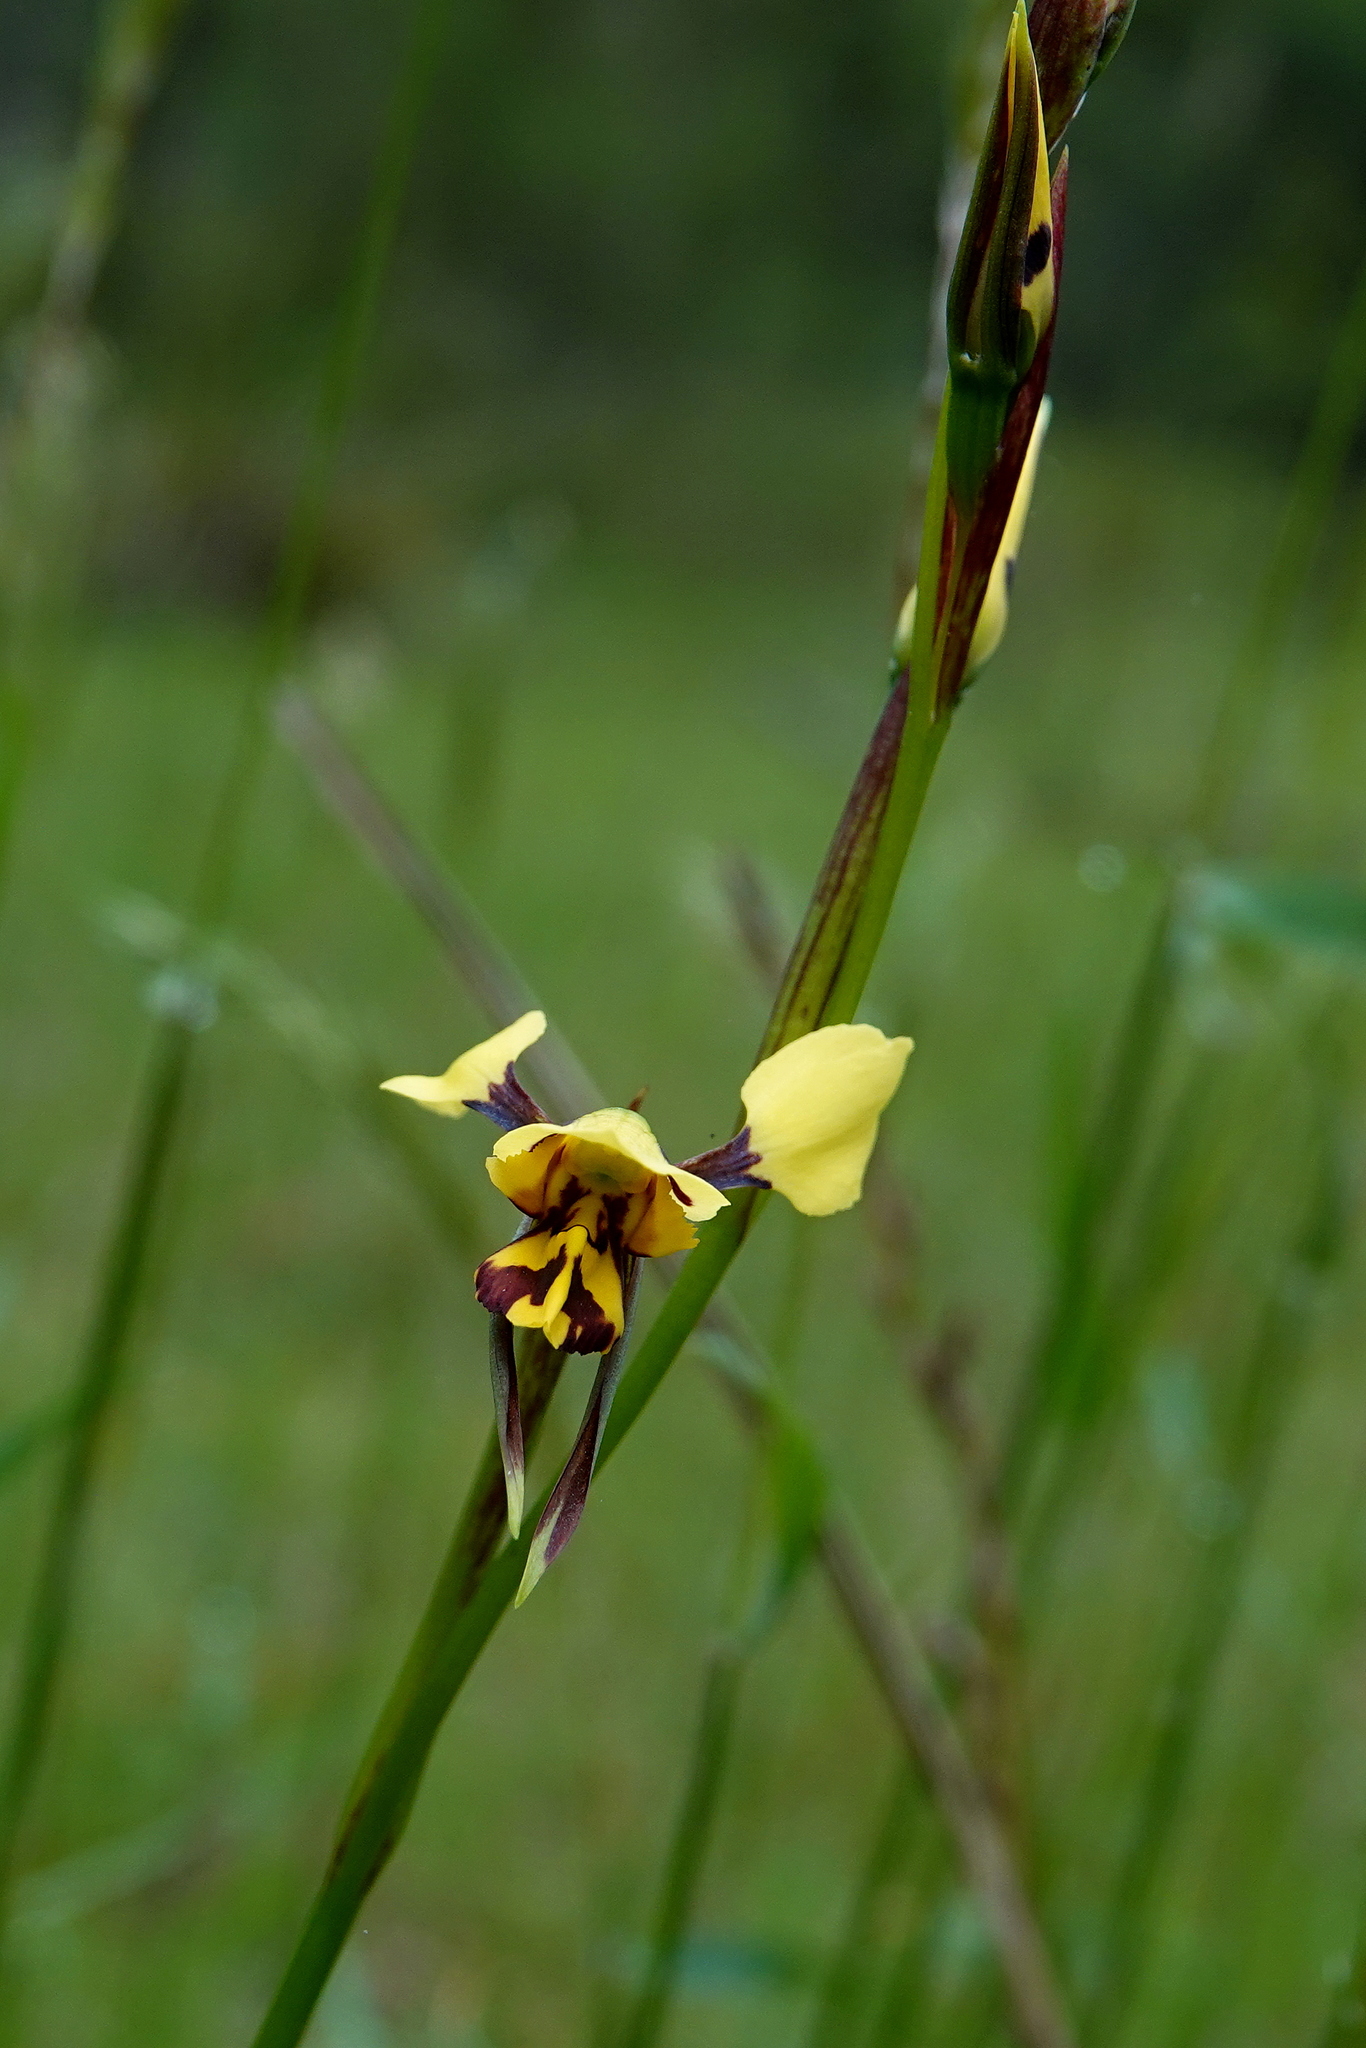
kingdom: Plantae
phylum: Tracheophyta
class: Liliopsida
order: Asparagales
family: Orchidaceae
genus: Diuris
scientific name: Diuris sulphurea
